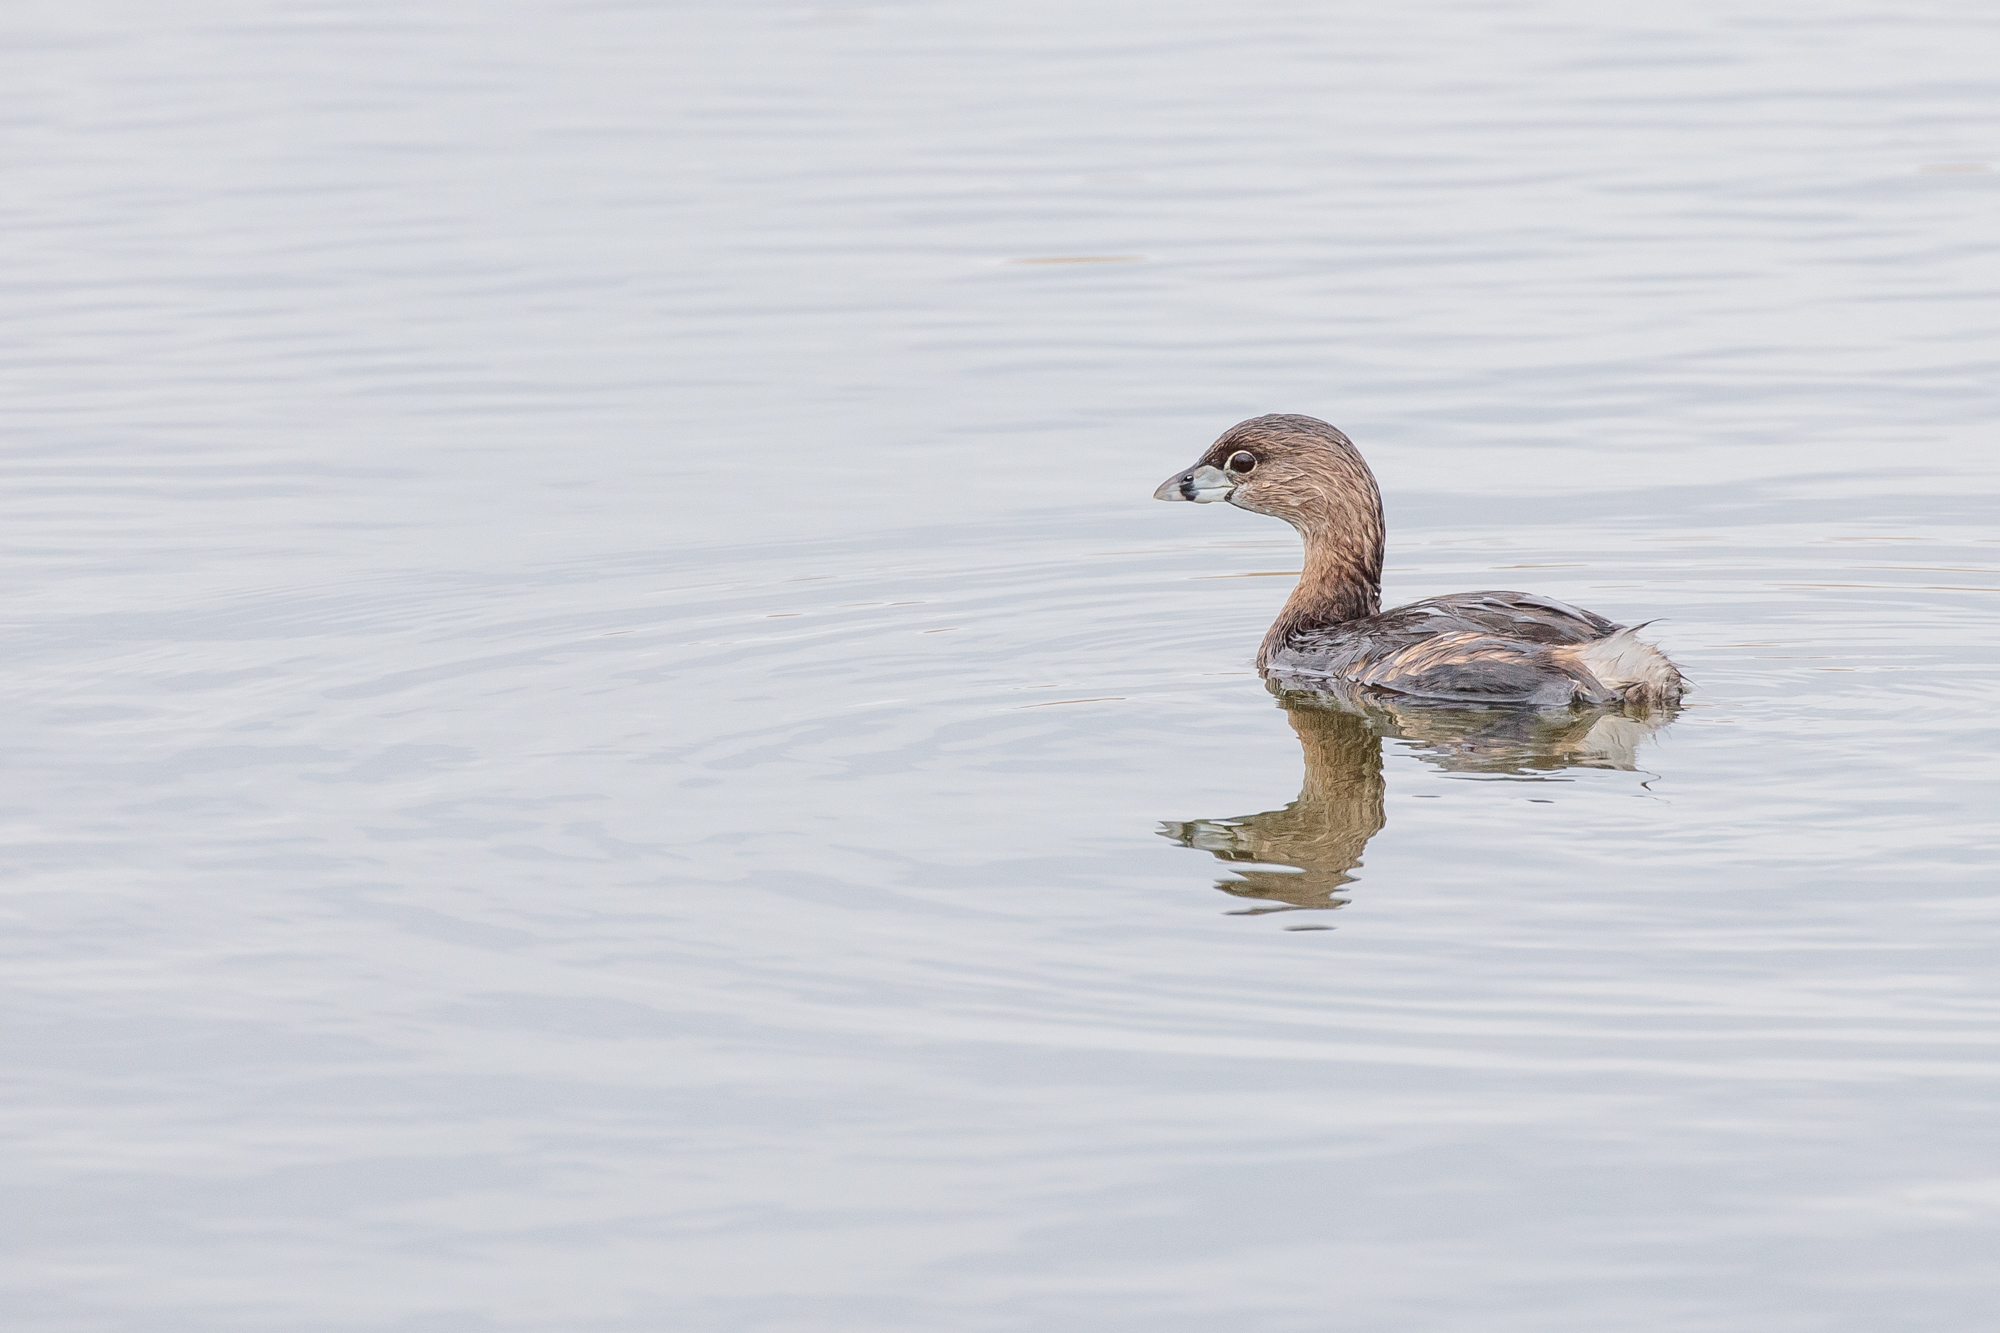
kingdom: Animalia
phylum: Chordata
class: Aves
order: Podicipediformes
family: Podicipedidae
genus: Podilymbus
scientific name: Podilymbus podiceps
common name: Pied-billed grebe
